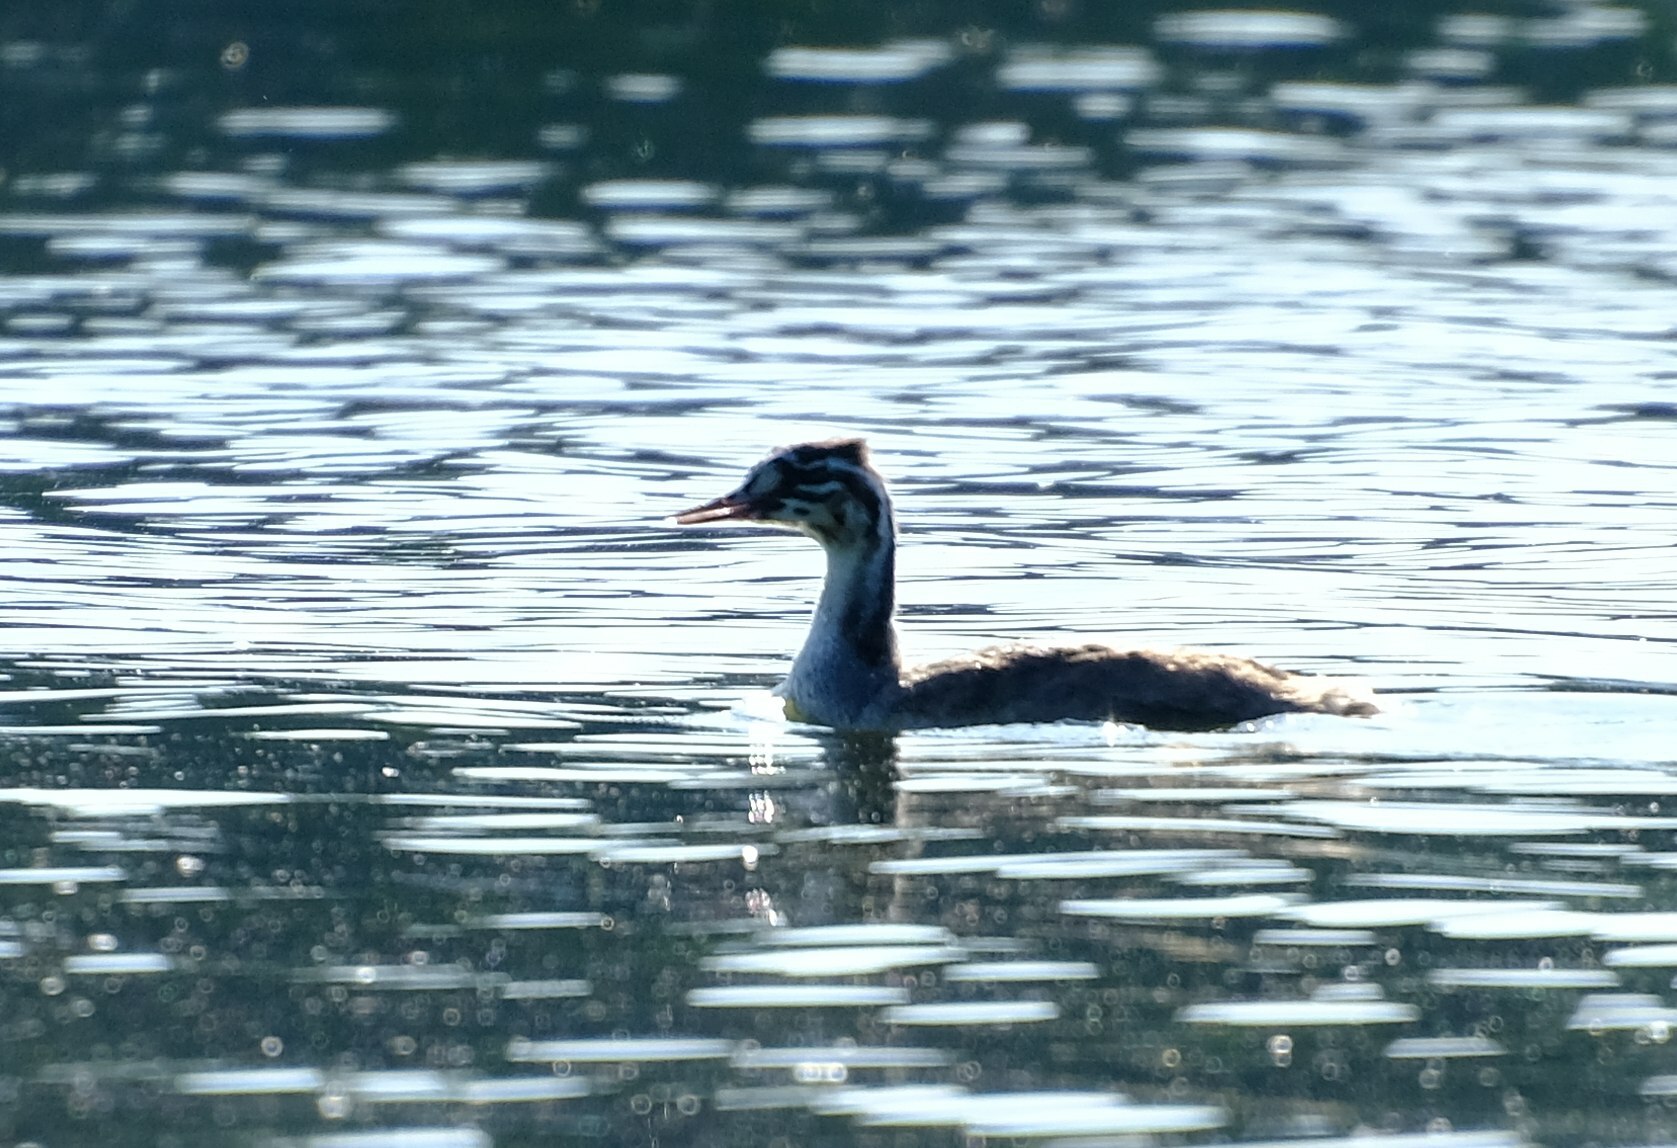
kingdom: Animalia
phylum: Chordata
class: Aves
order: Podicipediformes
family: Podicipedidae
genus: Podiceps
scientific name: Podiceps cristatus
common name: Great crested grebe
